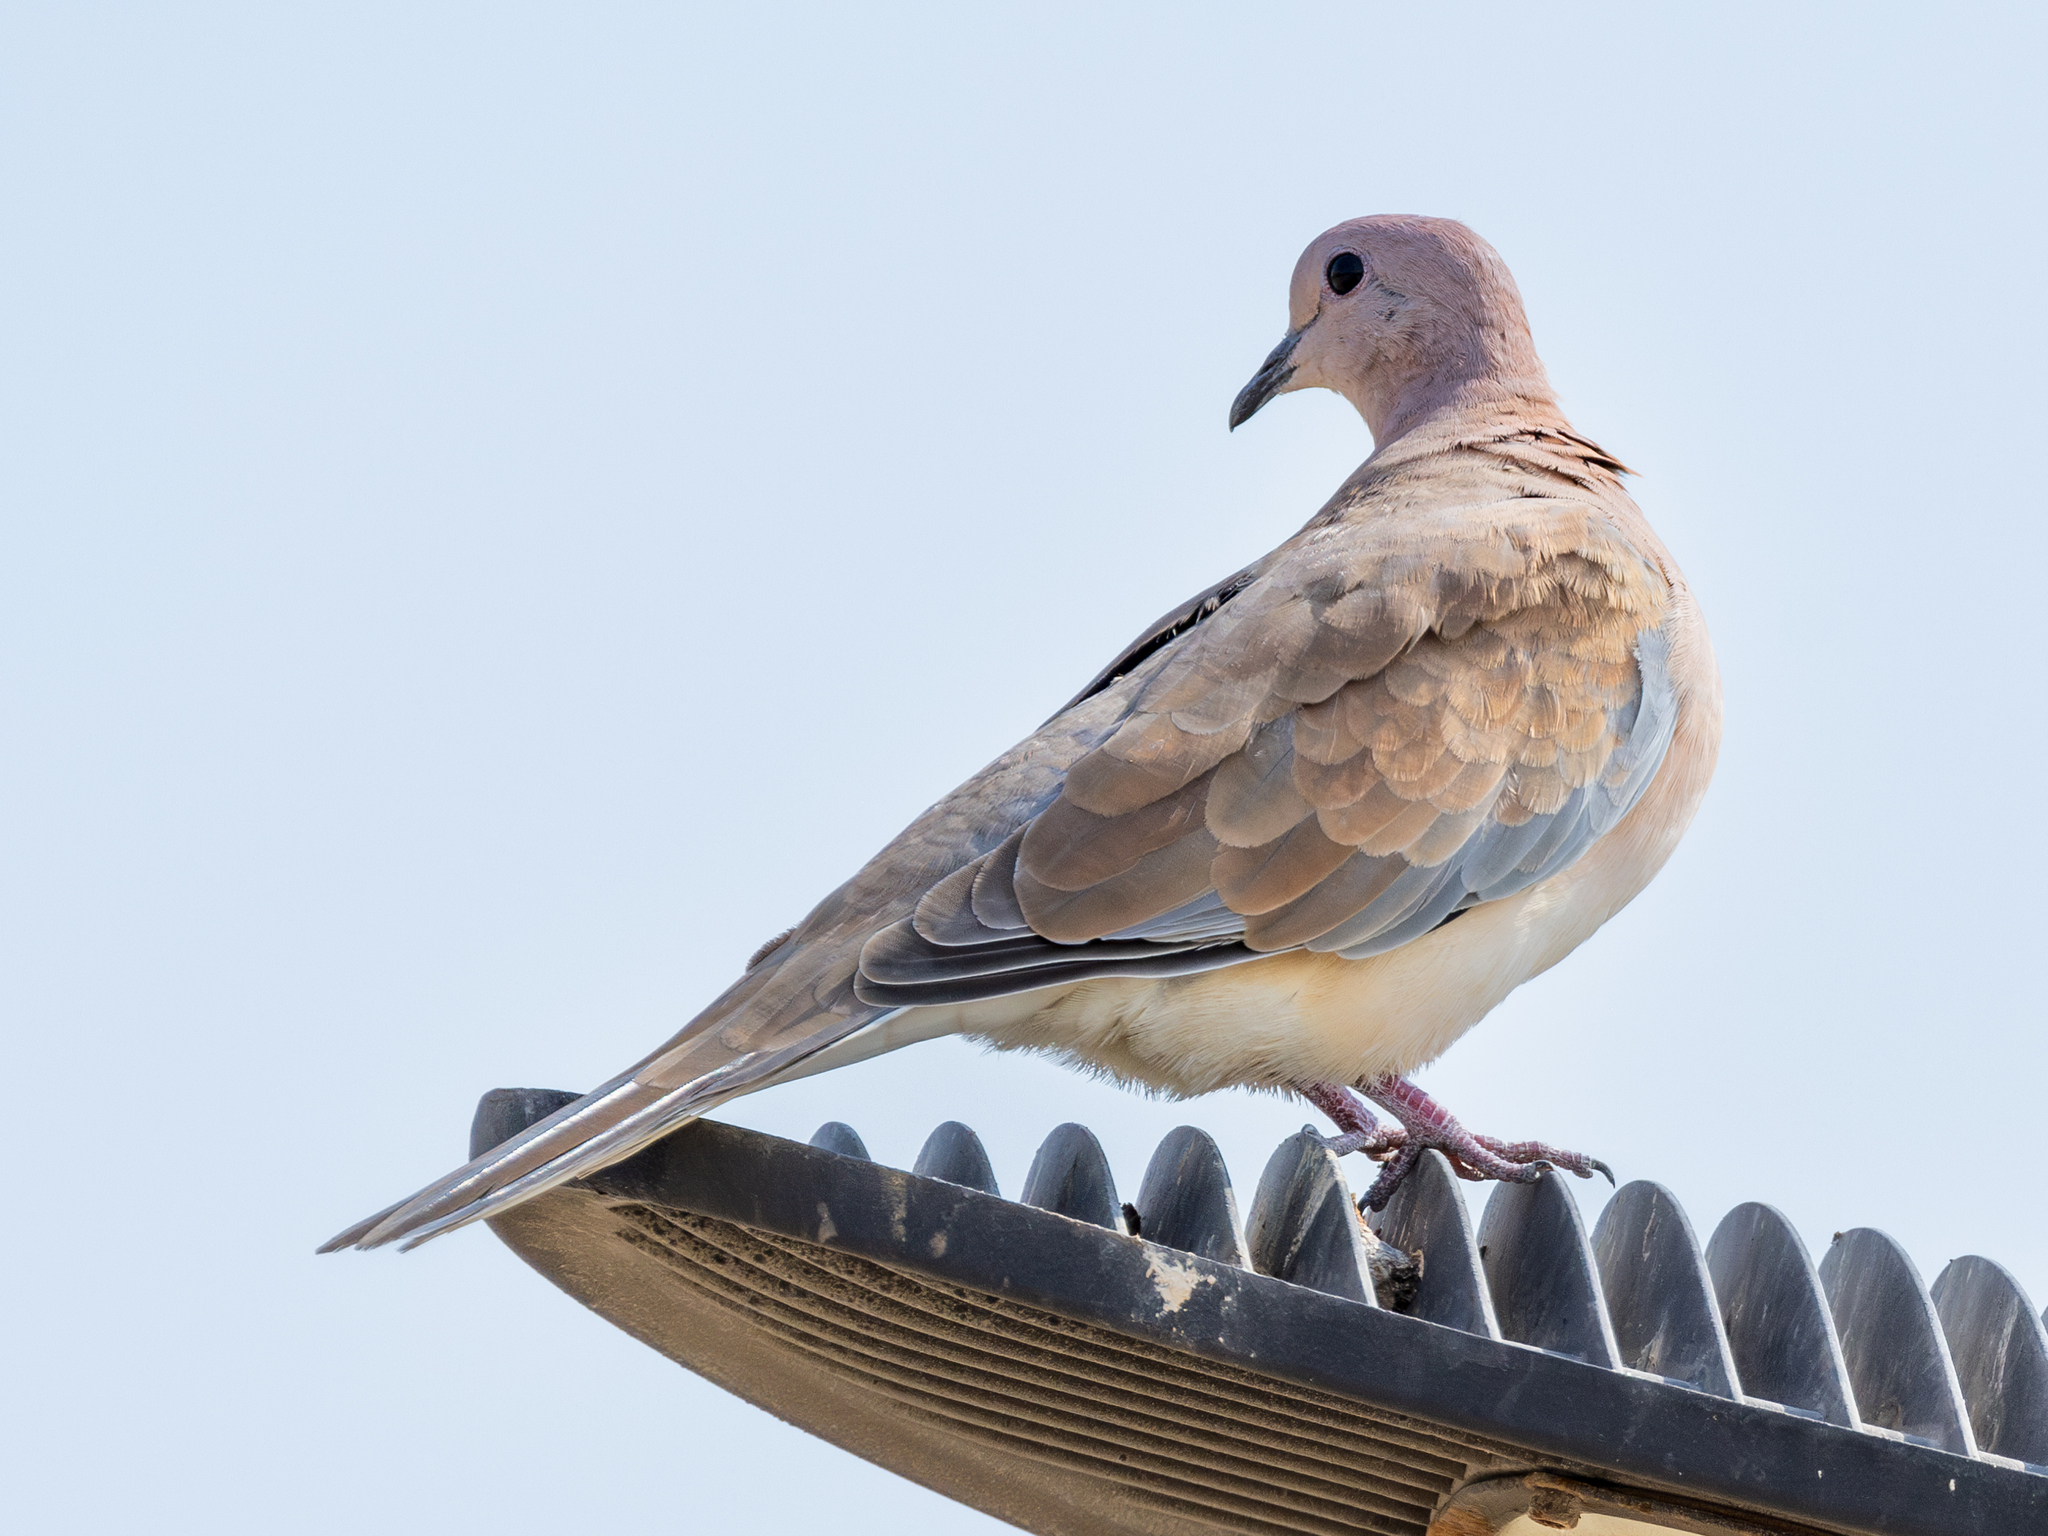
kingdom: Animalia
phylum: Chordata
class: Aves
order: Columbiformes
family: Columbidae
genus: Spilopelia
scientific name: Spilopelia senegalensis
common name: Laughing dove
